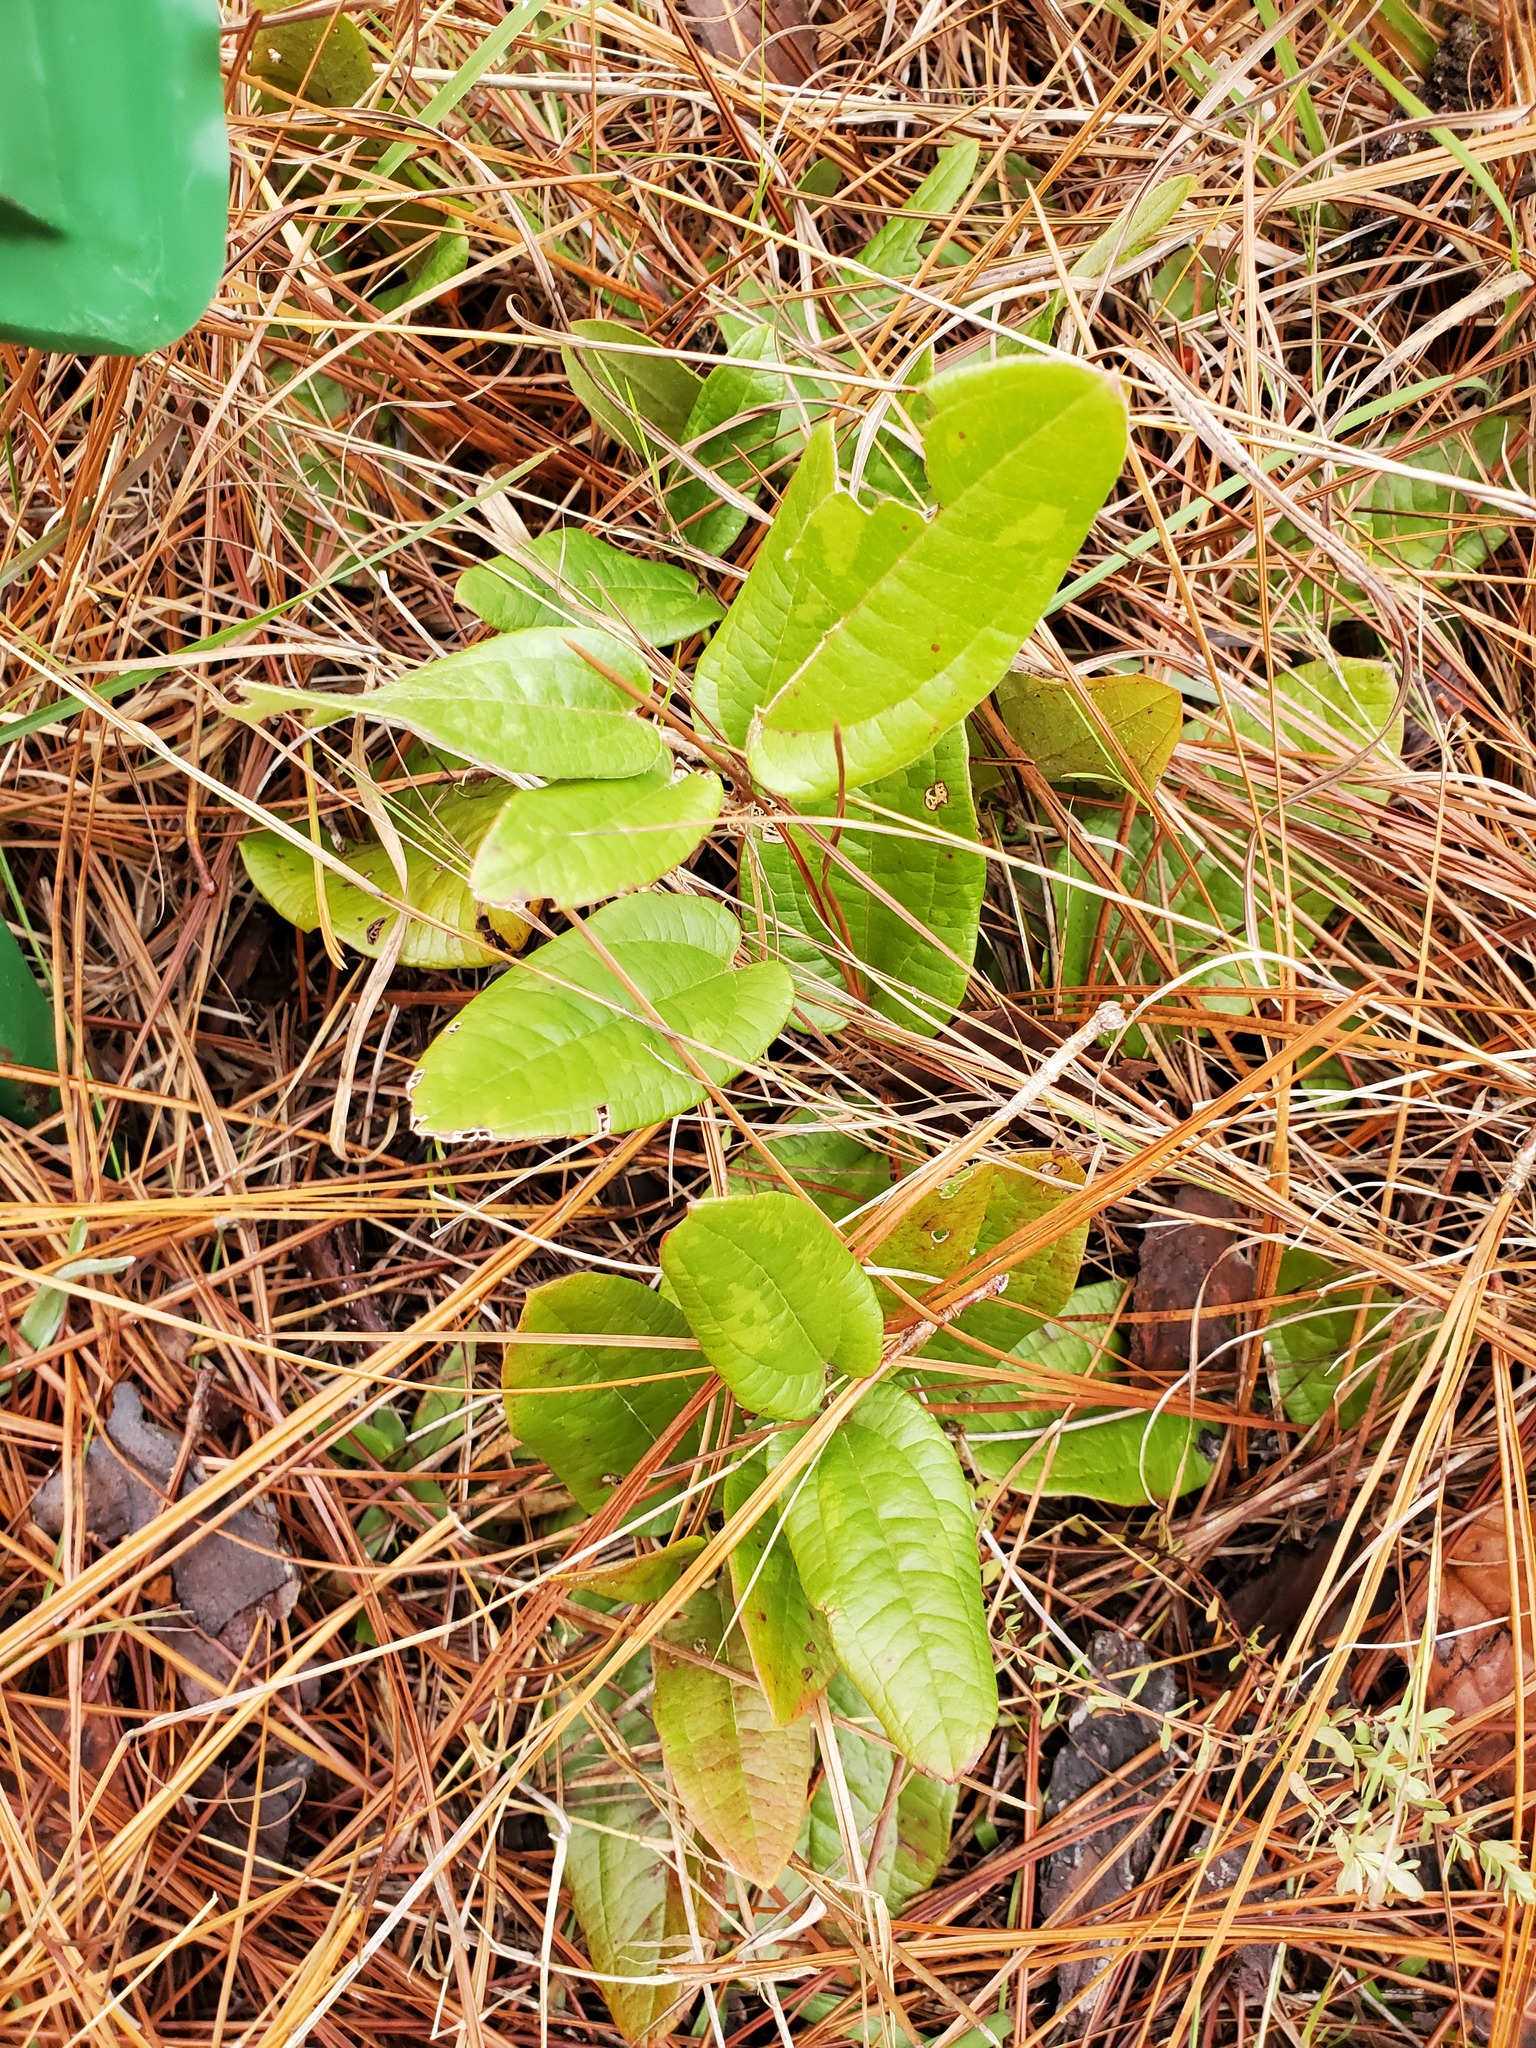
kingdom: Plantae
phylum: Tracheophyta
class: Liliopsida
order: Liliales
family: Smilacaceae
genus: Smilax
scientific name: Smilax pumila
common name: Sarsaparilla-vine
